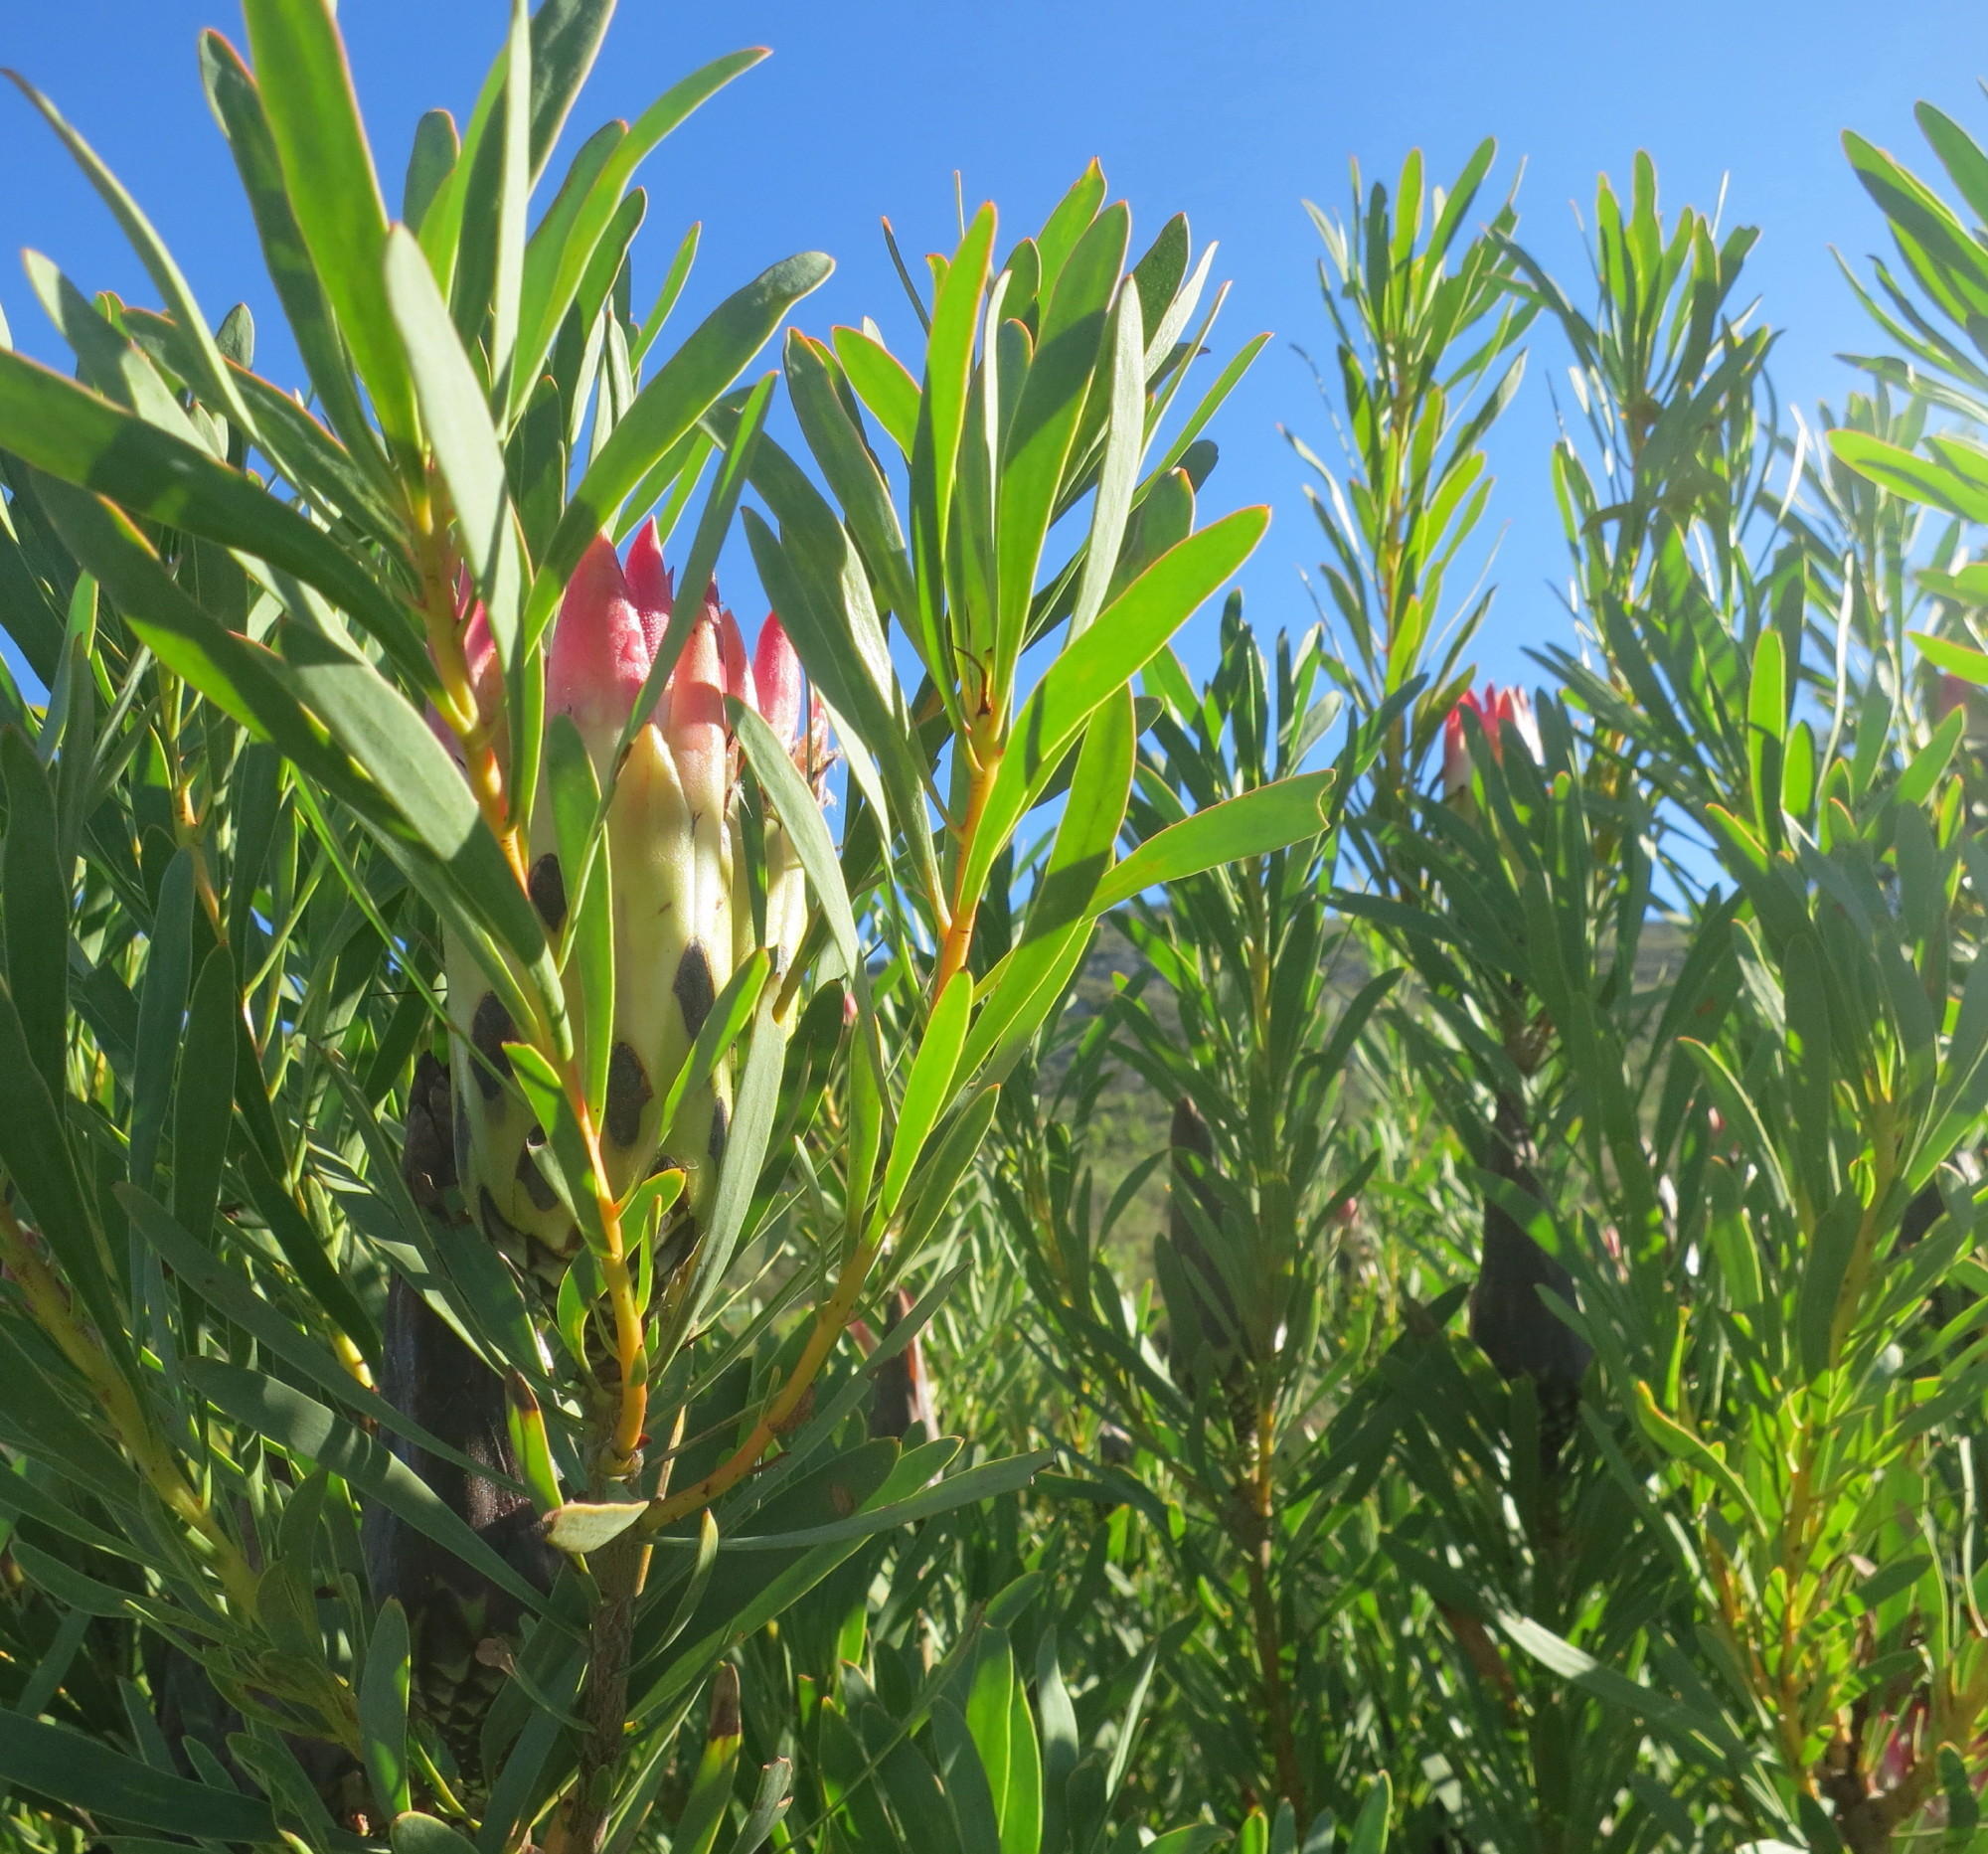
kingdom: Plantae
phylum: Tracheophyta
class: Magnoliopsida
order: Proteales
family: Proteaceae
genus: Protea
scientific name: Protea repens
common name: Sugarbush
